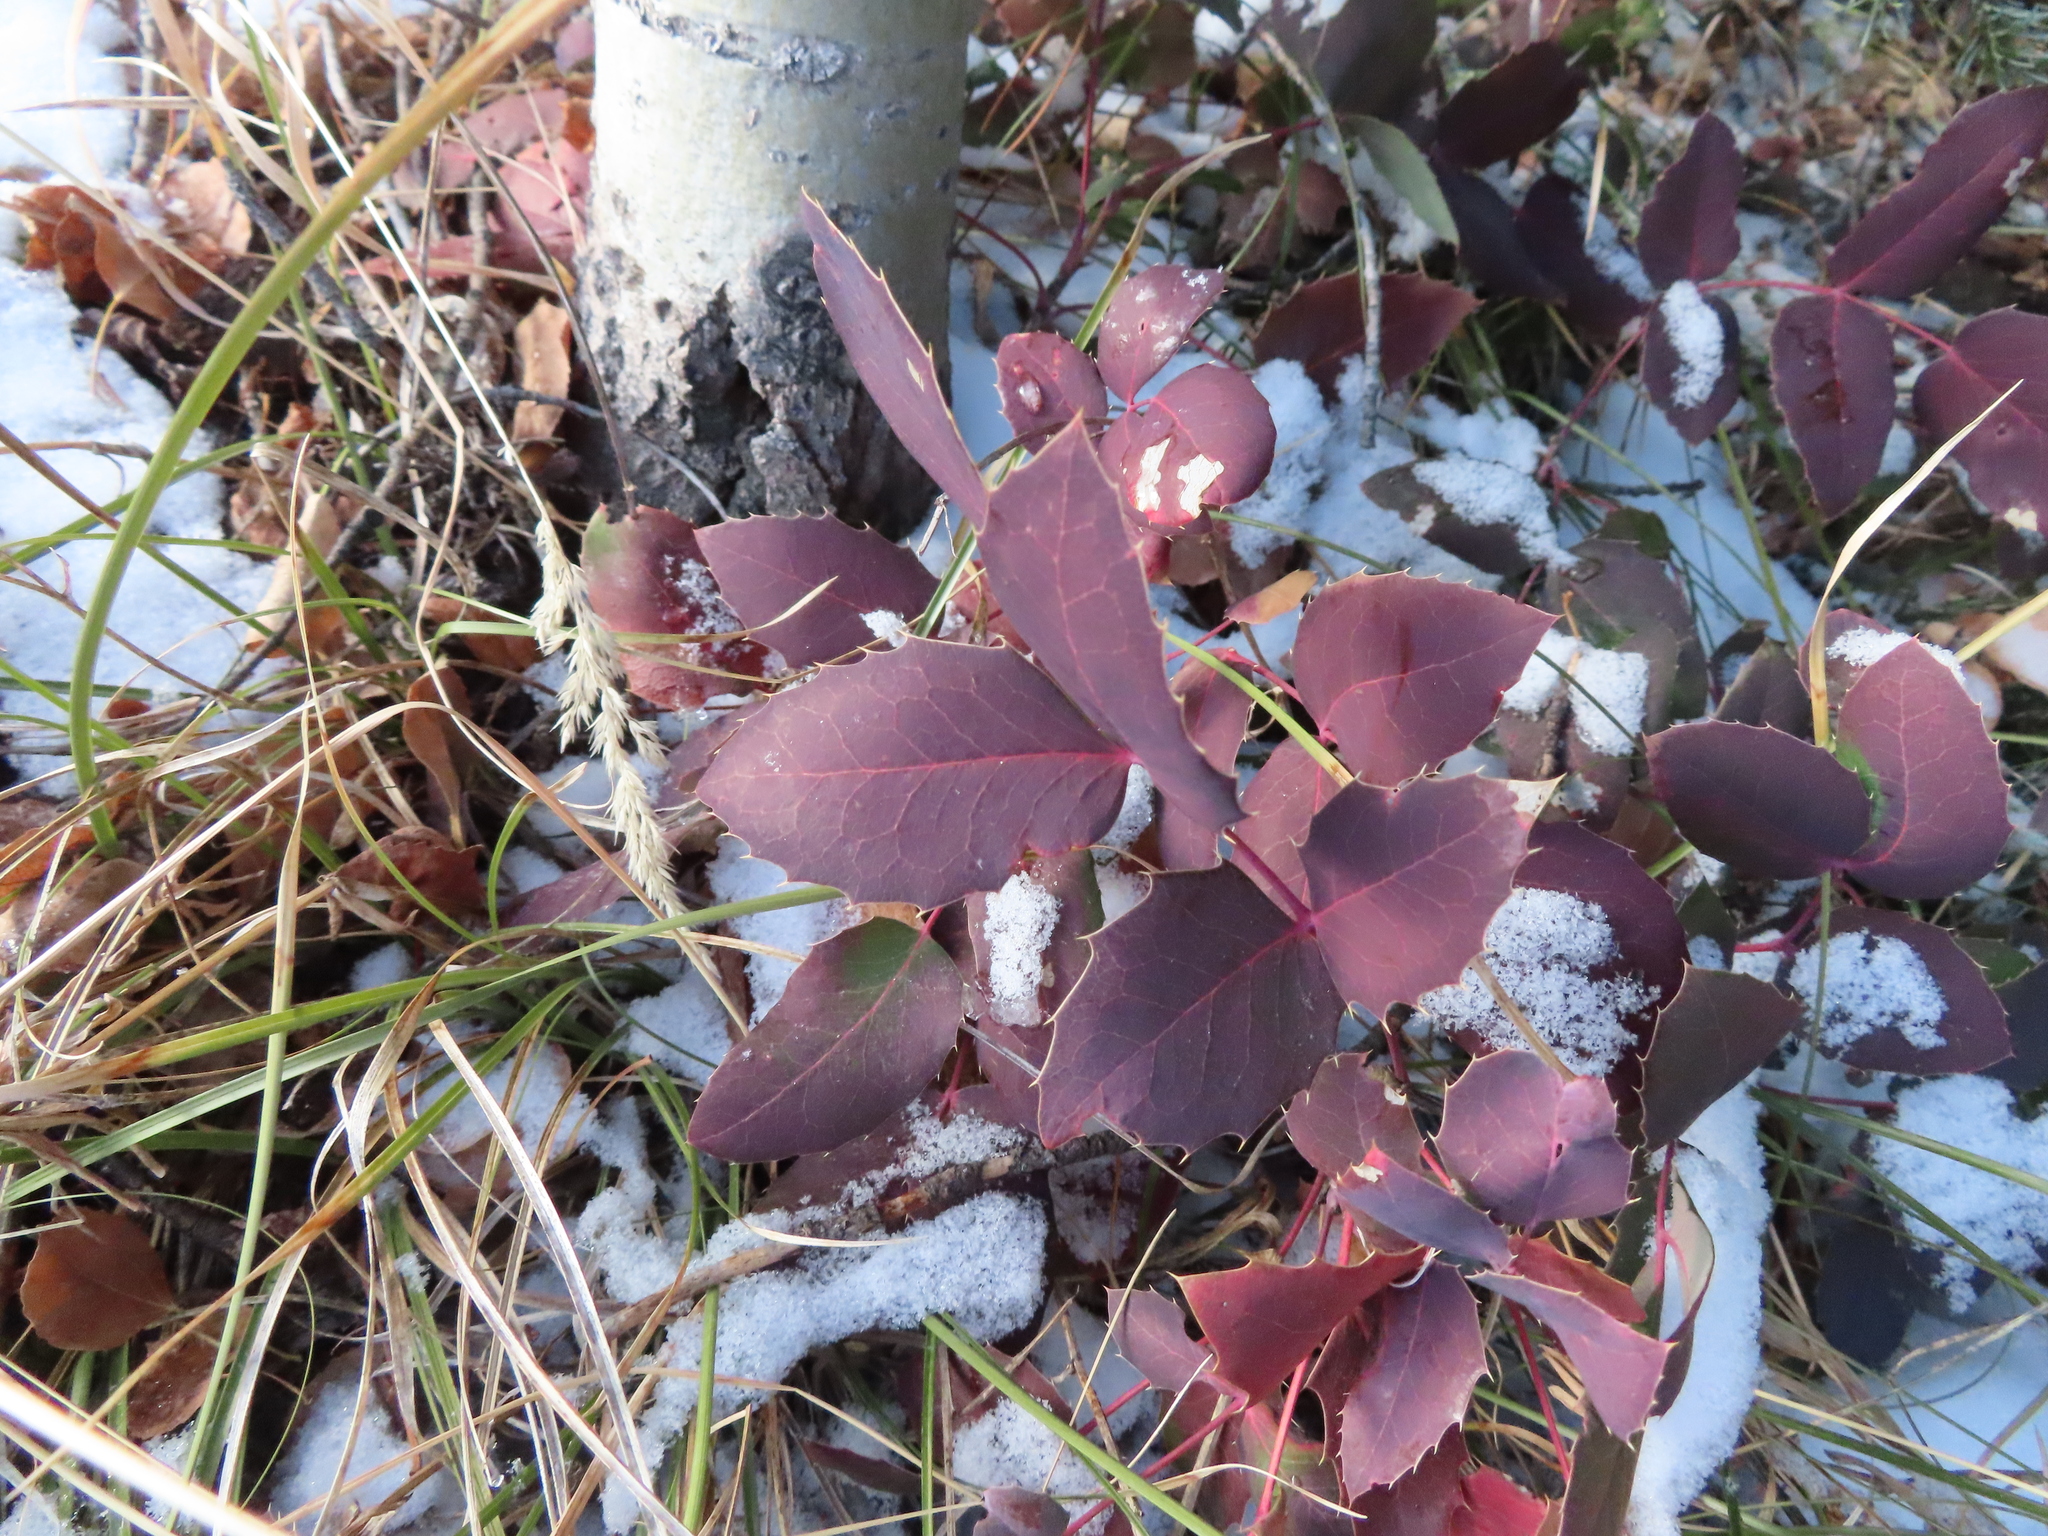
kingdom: Plantae
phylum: Tracheophyta
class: Magnoliopsida
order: Ranunculales
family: Berberidaceae
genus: Mahonia
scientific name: Mahonia repens
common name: Creeping oregon-grape
